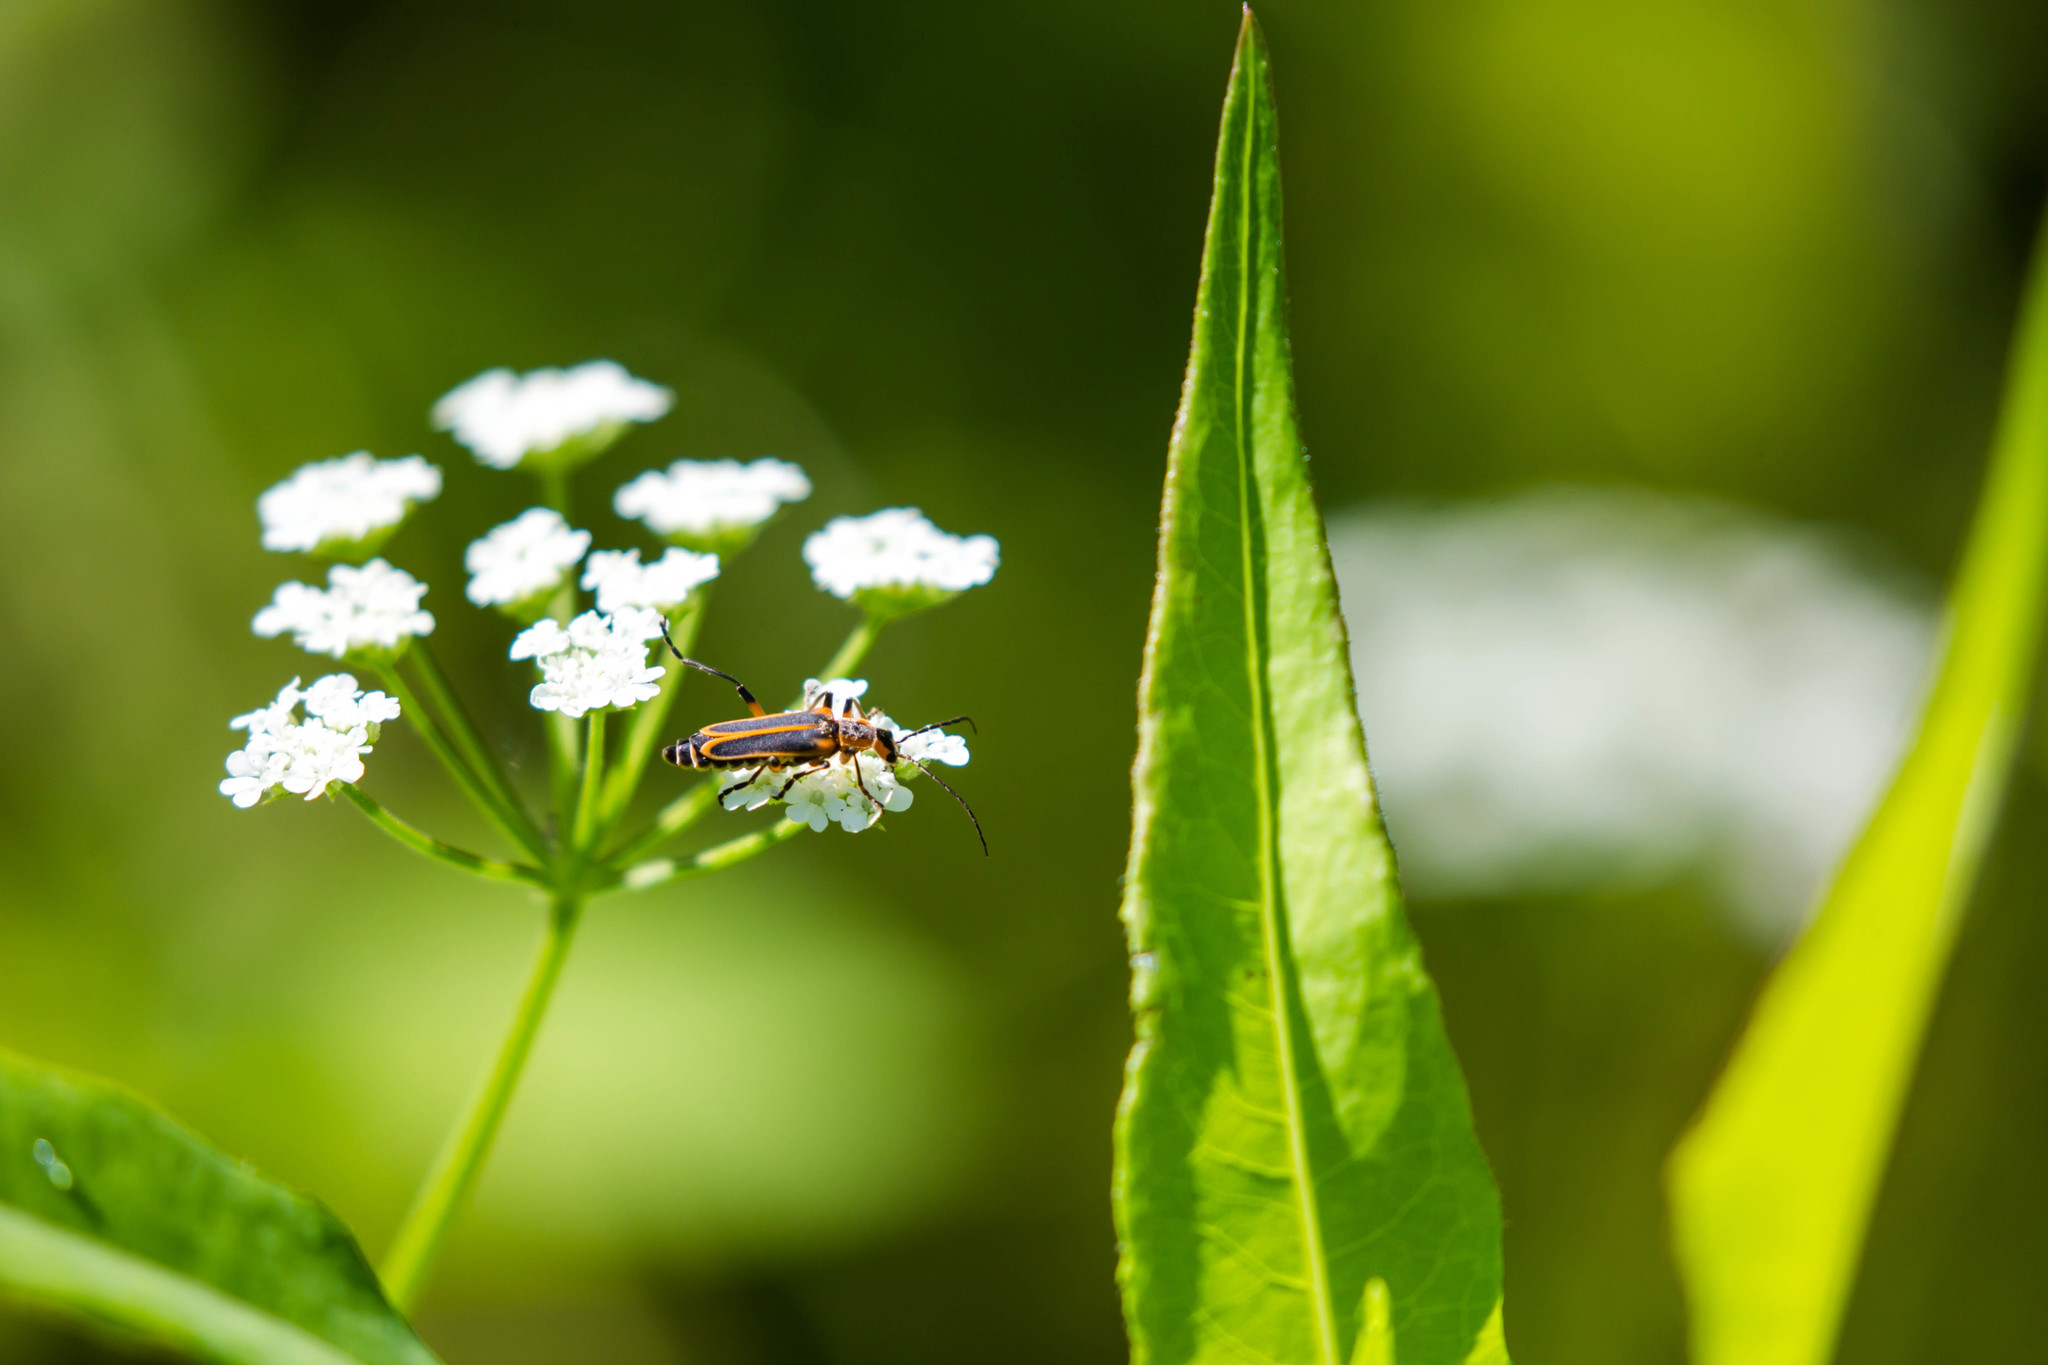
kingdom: Animalia
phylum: Arthropoda
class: Insecta
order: Coleoptera
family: Cantharidae
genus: Chauliognathus
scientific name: Chauliognathus marginatus
